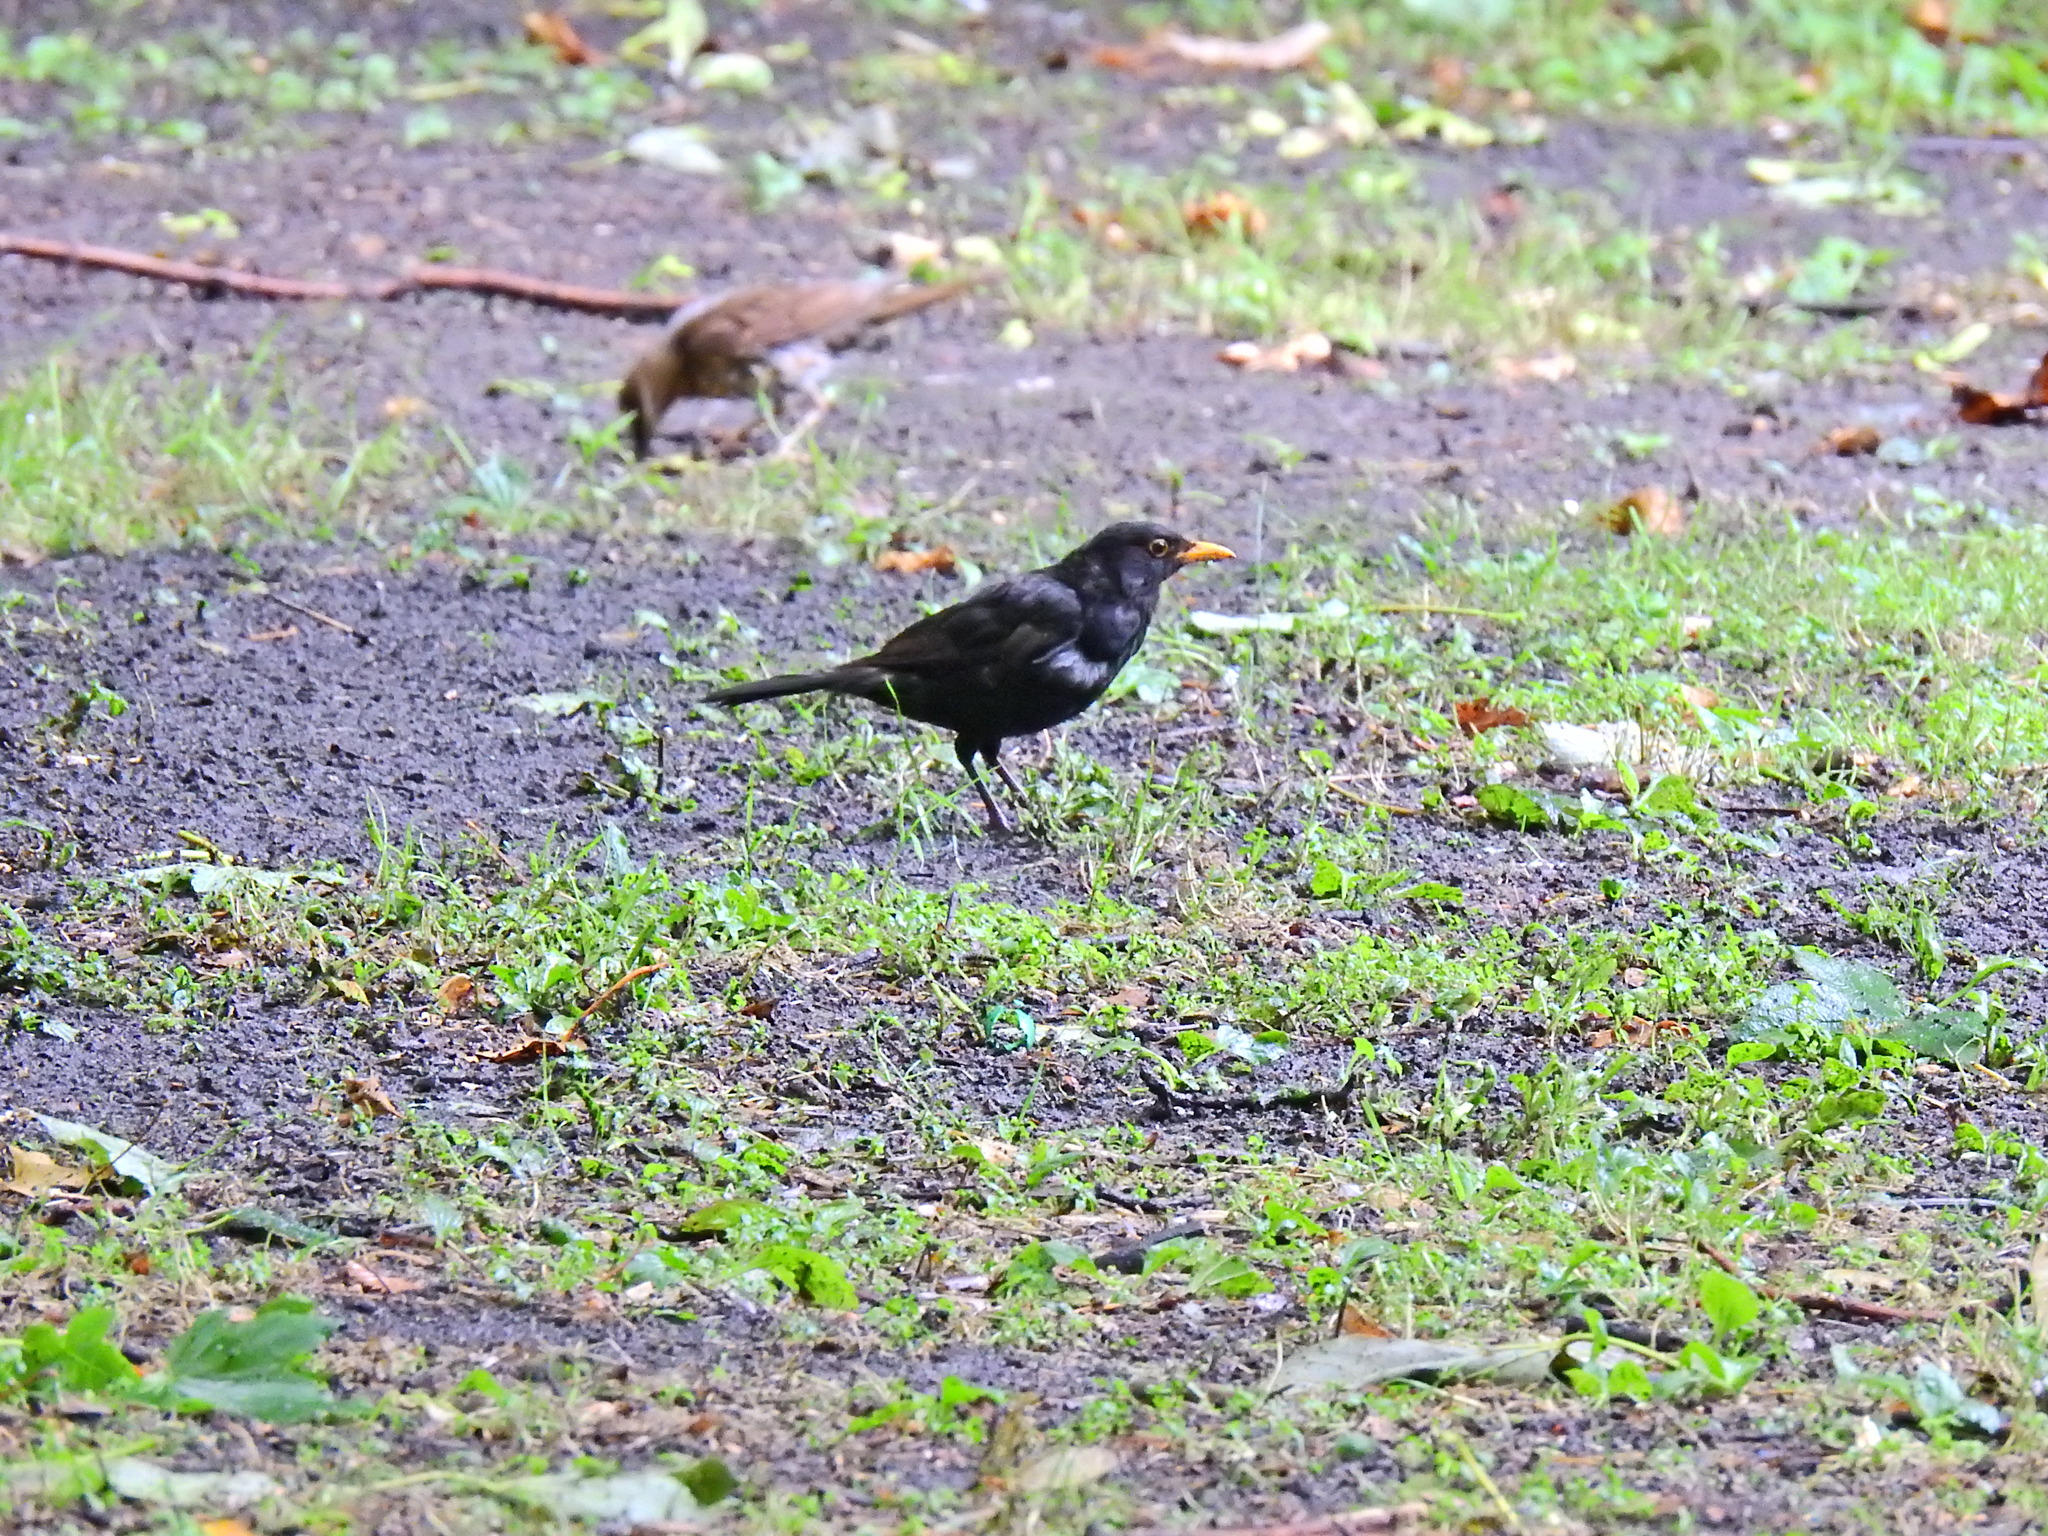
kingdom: Animalia
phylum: Chordata
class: Aves
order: Passeriformes
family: Turdidae
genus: Turdus
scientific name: Turdus merula
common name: Common blackbird
